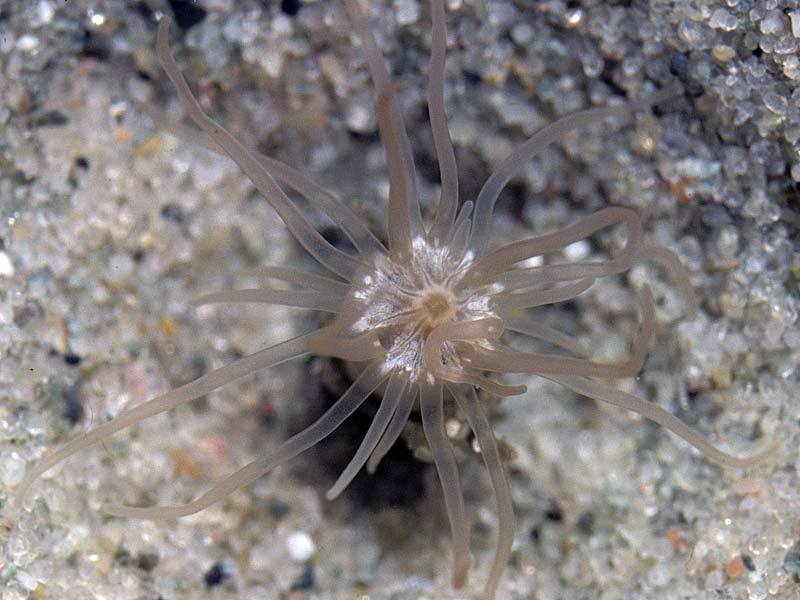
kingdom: Animalia
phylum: Cnidaria
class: Anthozoa
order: Actiniaria
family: Edwardsiidae
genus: Edwardsia
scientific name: Edwardsia timida
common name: Timid burrowing anemone
